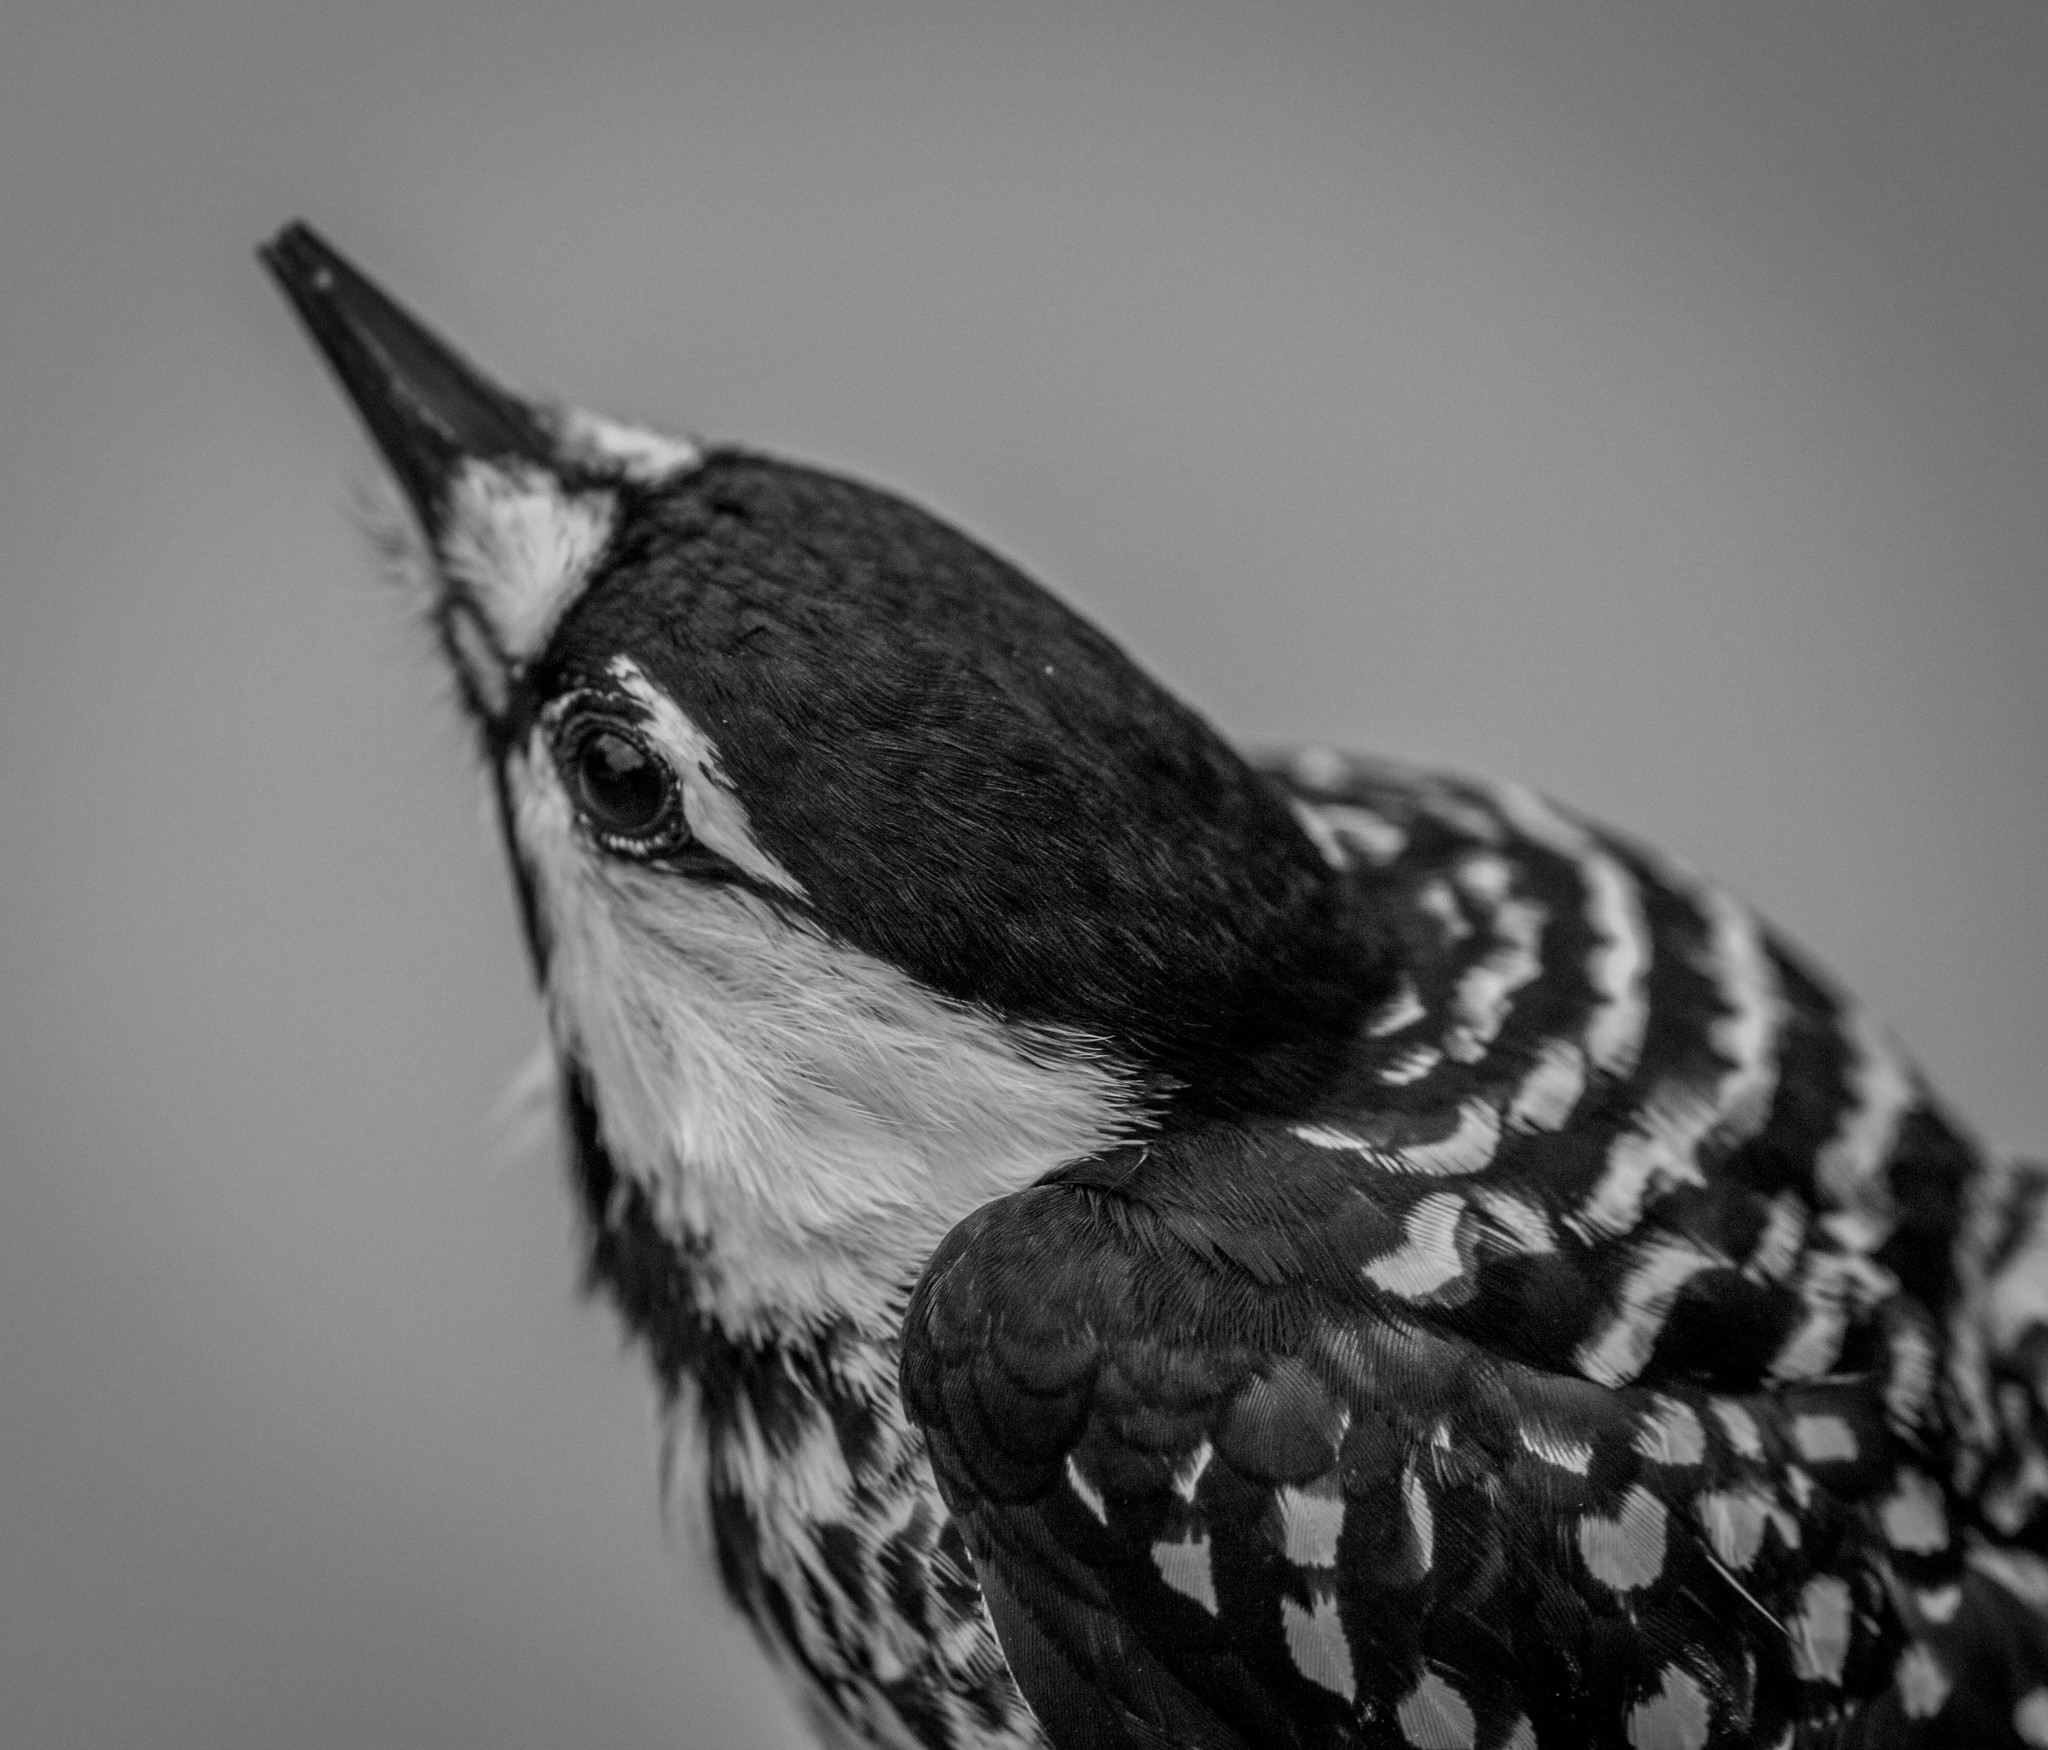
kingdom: Animalia
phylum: Chordata
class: Aves
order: Piciformes
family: Picidae
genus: Leuconotopicus
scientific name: Leuconotopicus borealis
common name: Red-cockaded woodpecker
